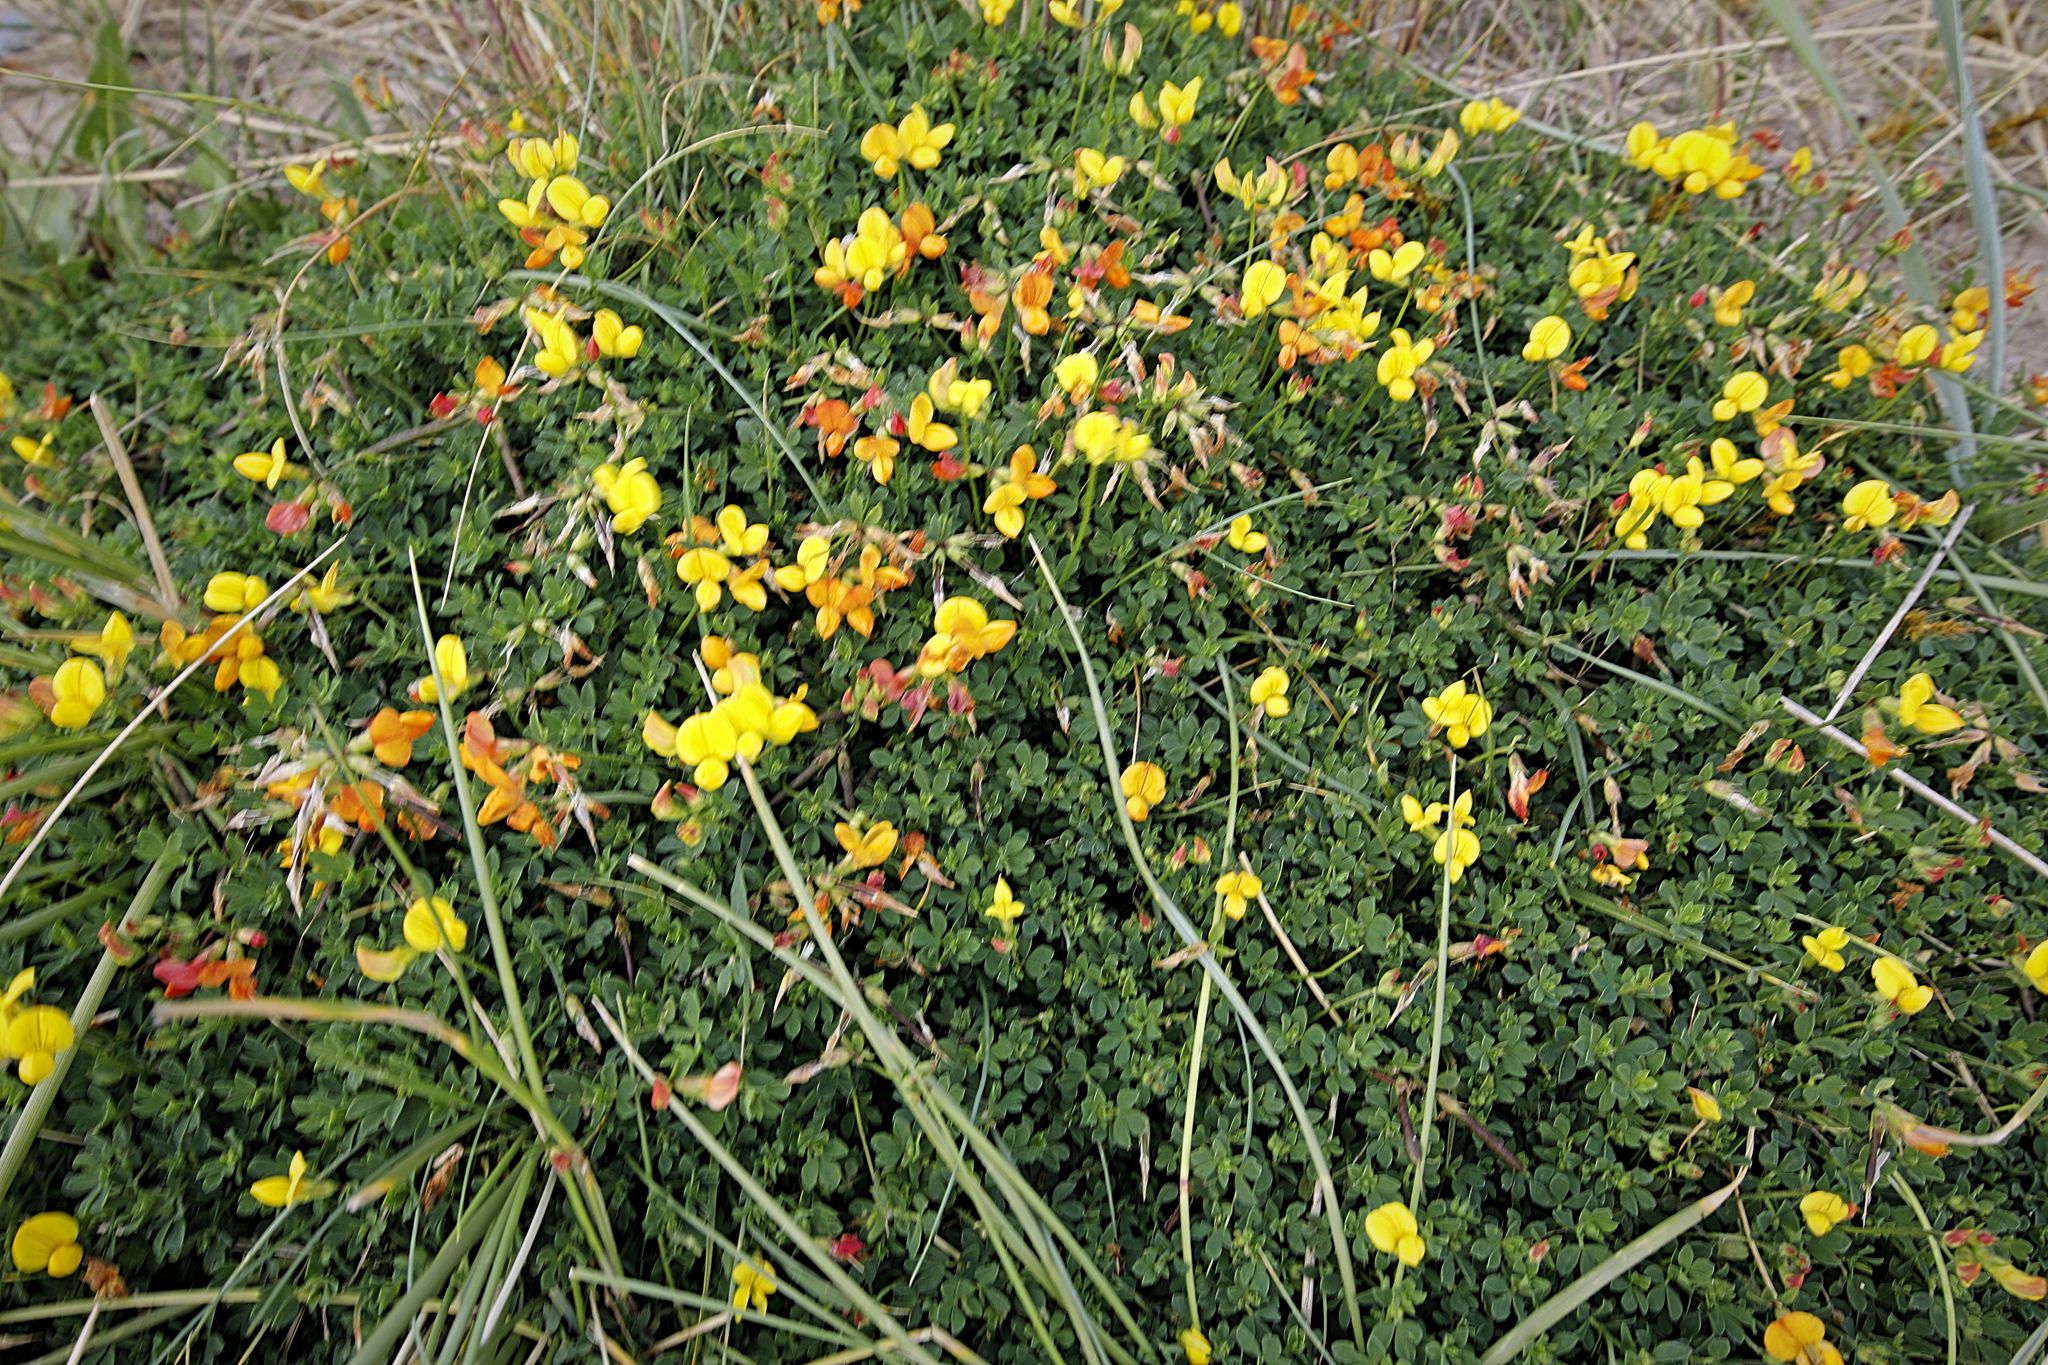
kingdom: Plantae
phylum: Tracheophyta
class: Magnoliopsida
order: Fabales
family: Fabaceae
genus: Lotus
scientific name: Lotus corniculatus
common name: Common bird's-foot-trefoil
